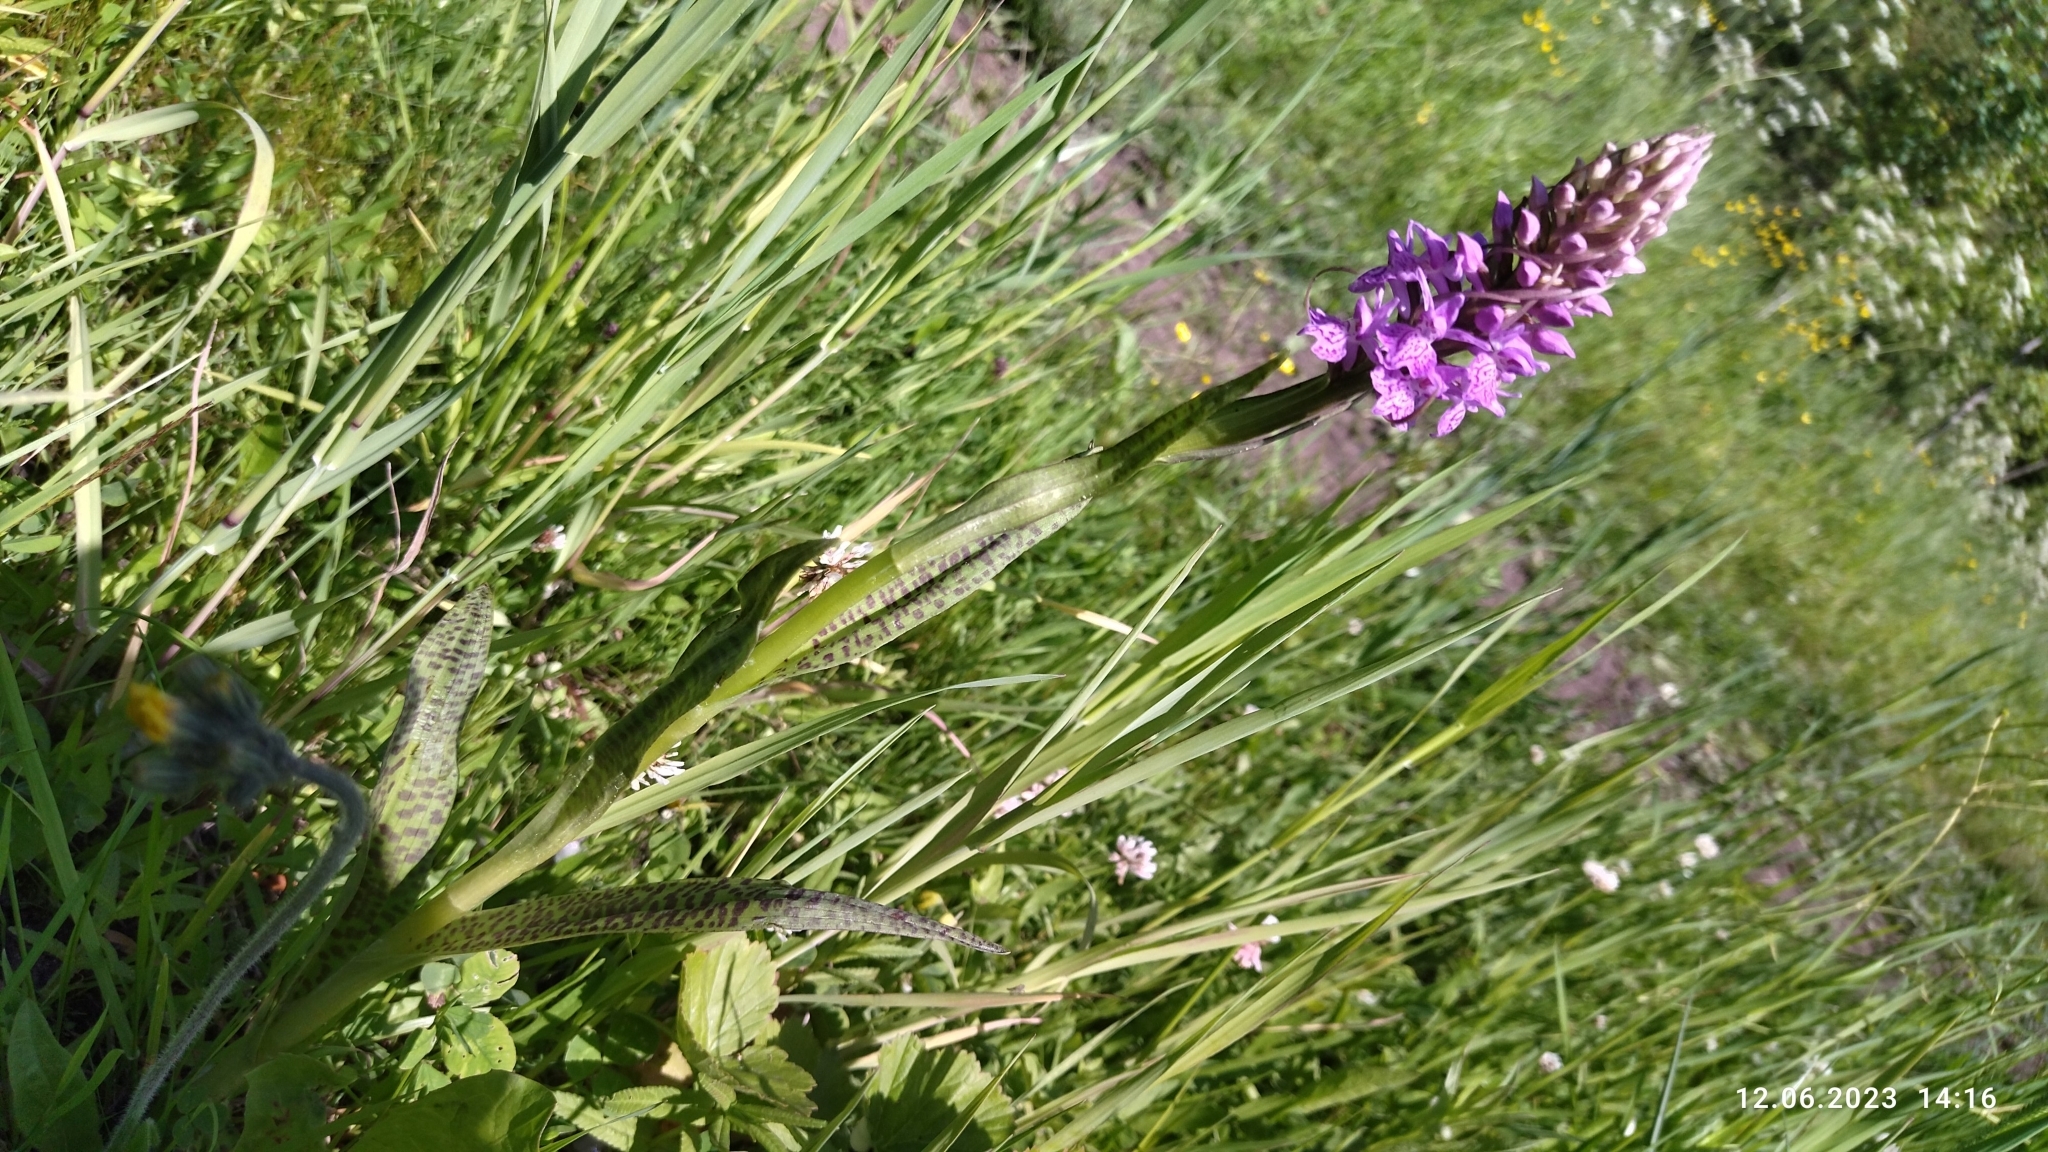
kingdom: Plantae
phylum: Tracheophyta
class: Liliopsida
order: Asparagales
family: Orchidaceae
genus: Dactylorhiza
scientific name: Dactylorhiza majalis
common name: Marsh orchid
